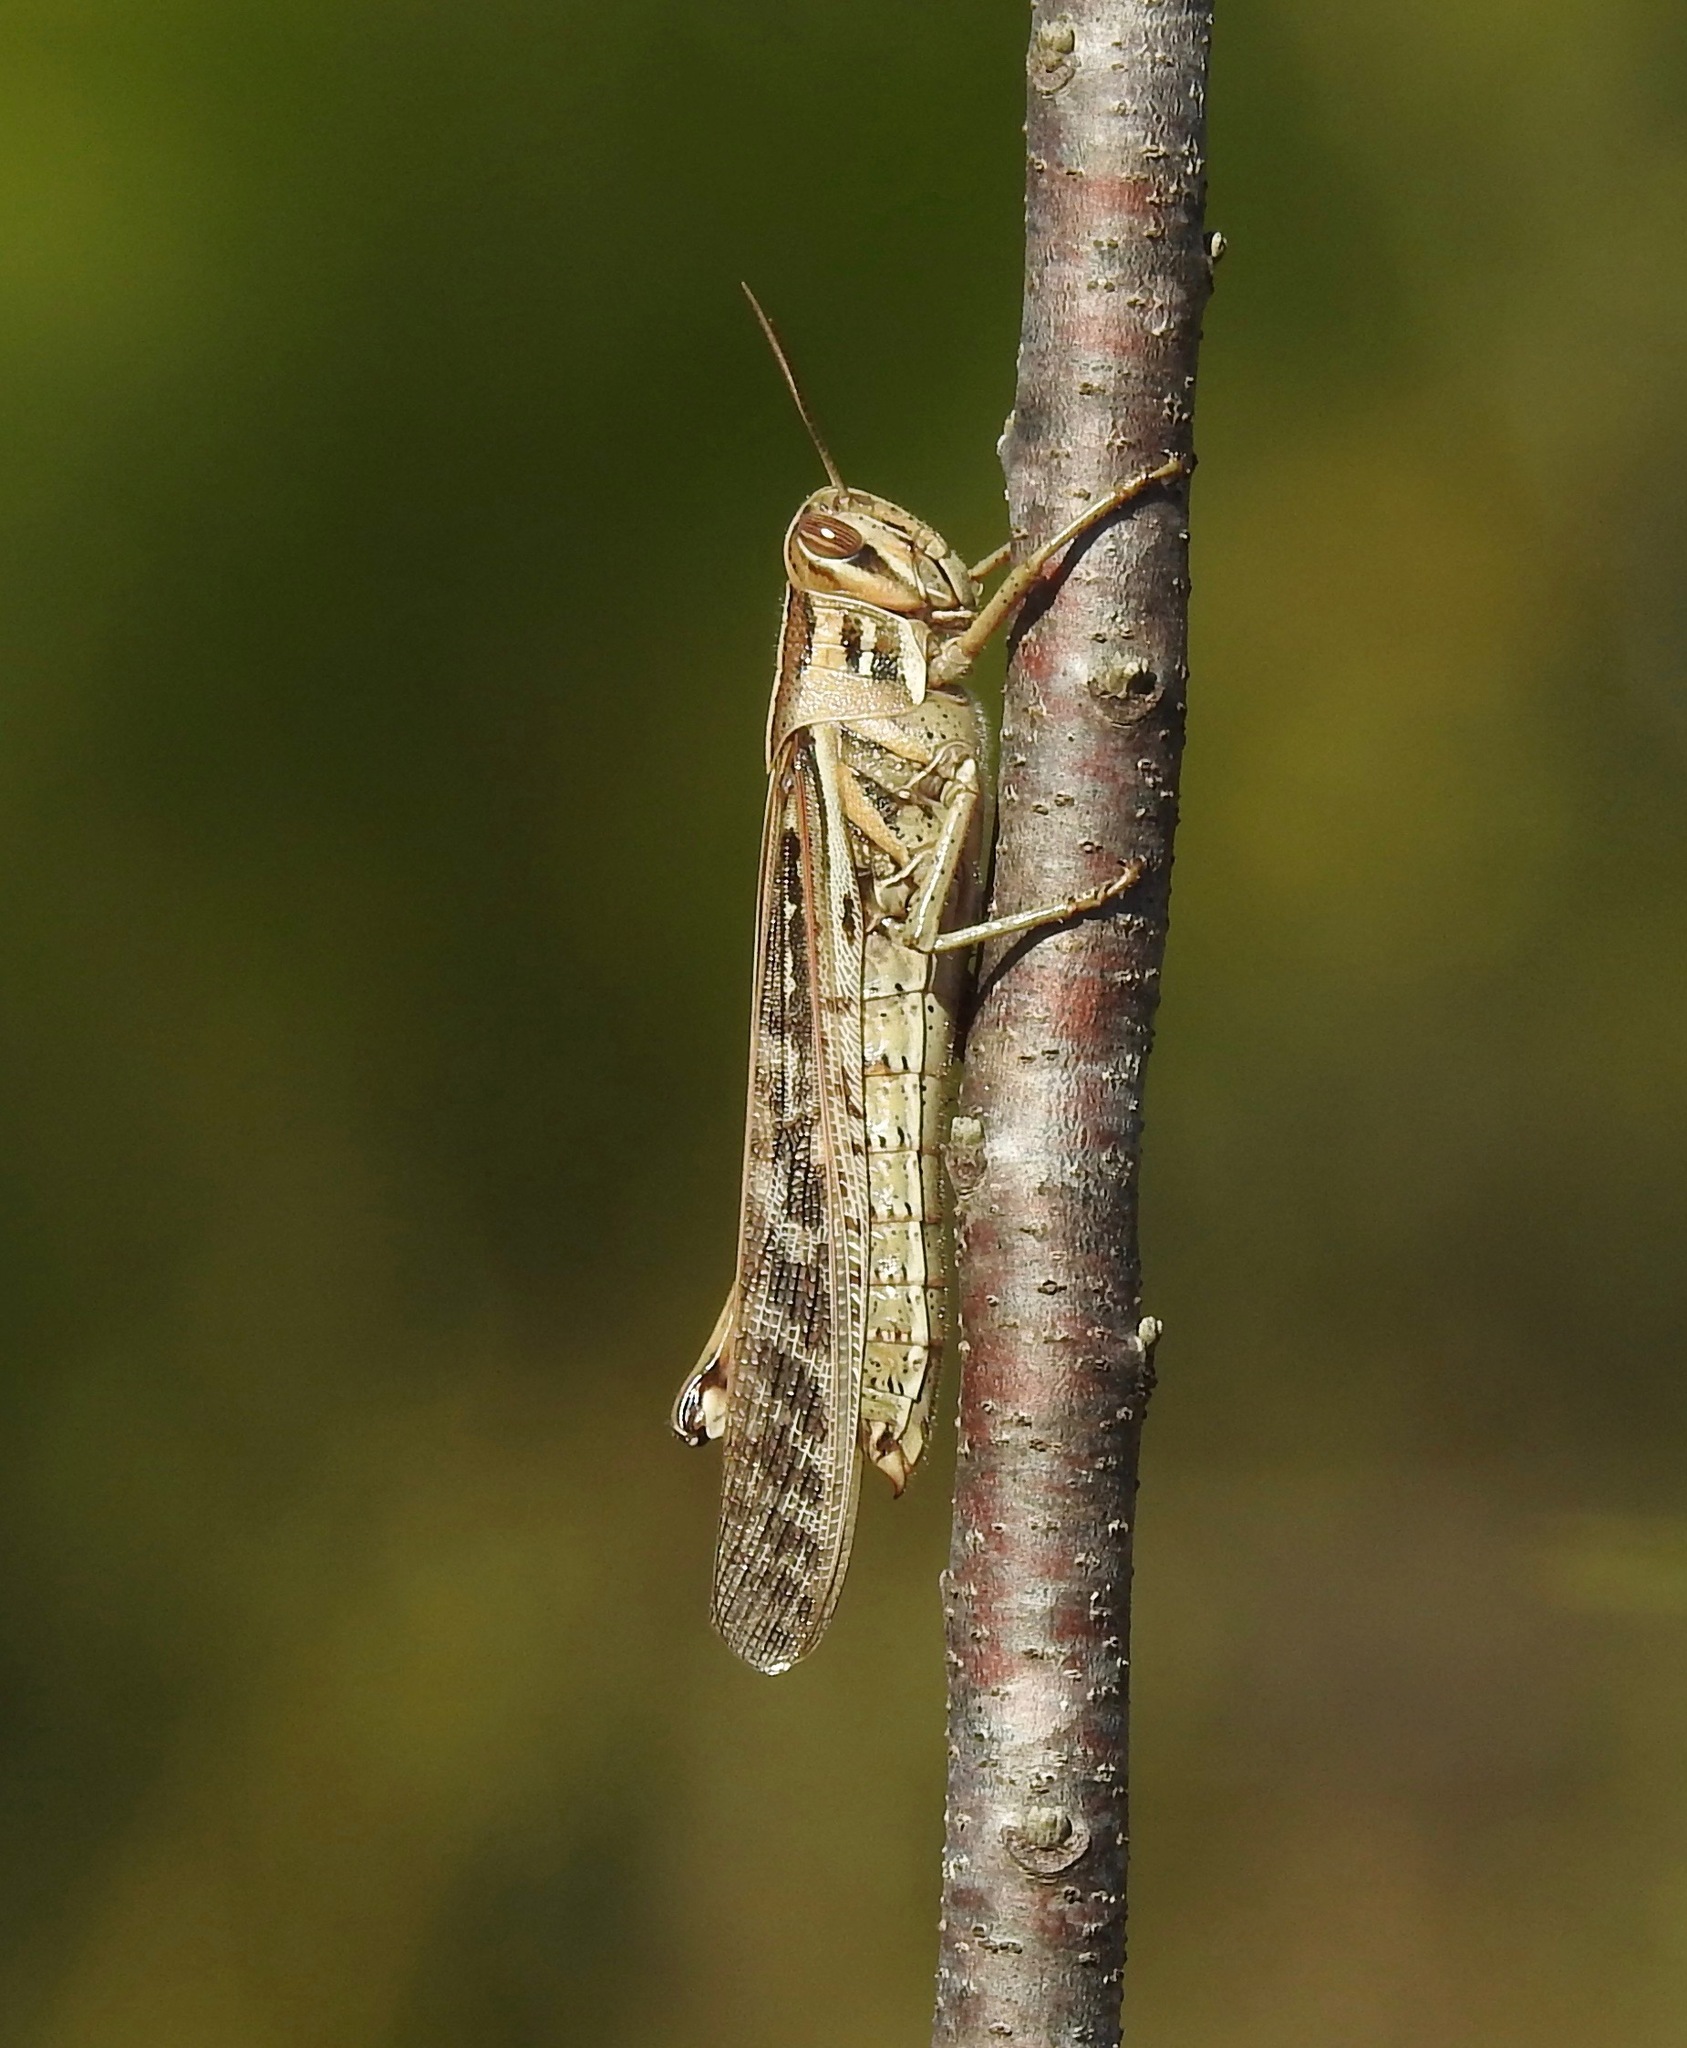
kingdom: Animalia
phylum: Arthropoda
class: Insecta
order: Orthoptera
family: Acrididae
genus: Schistocerca
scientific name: Schistocerca americana
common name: American bird locust
